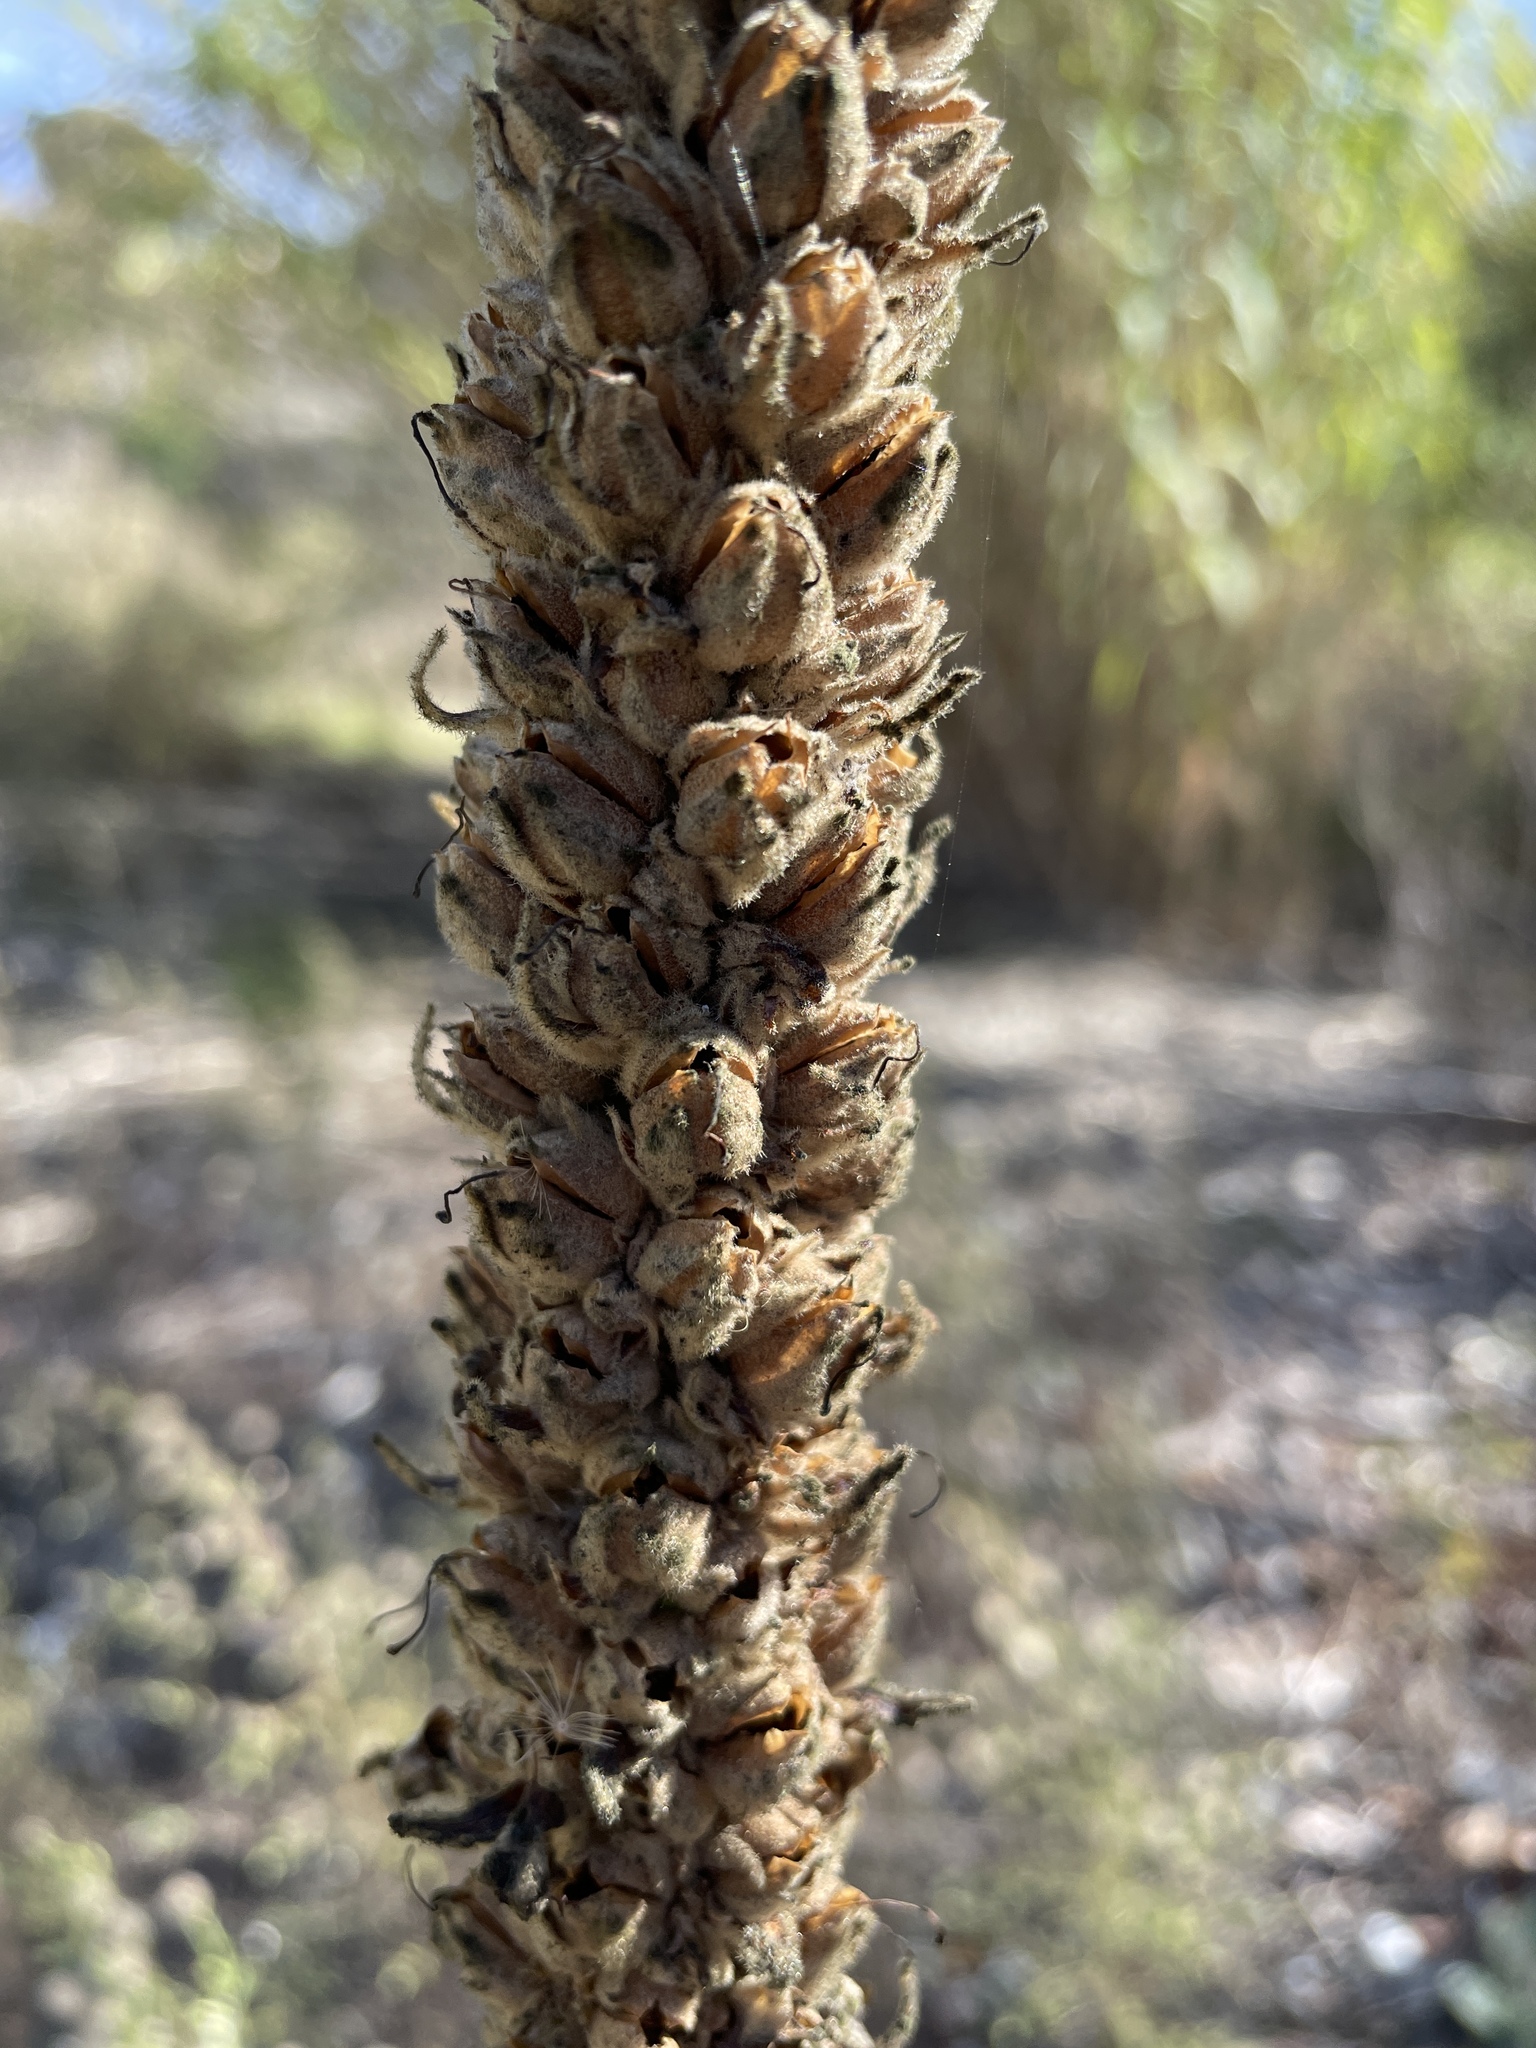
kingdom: Plantae
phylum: Tracheophyta
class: Magnoliopsida
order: Lamiales
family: Scrophulariaceae
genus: Verbascum
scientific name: Verbascum thapsus
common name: Common mullein
